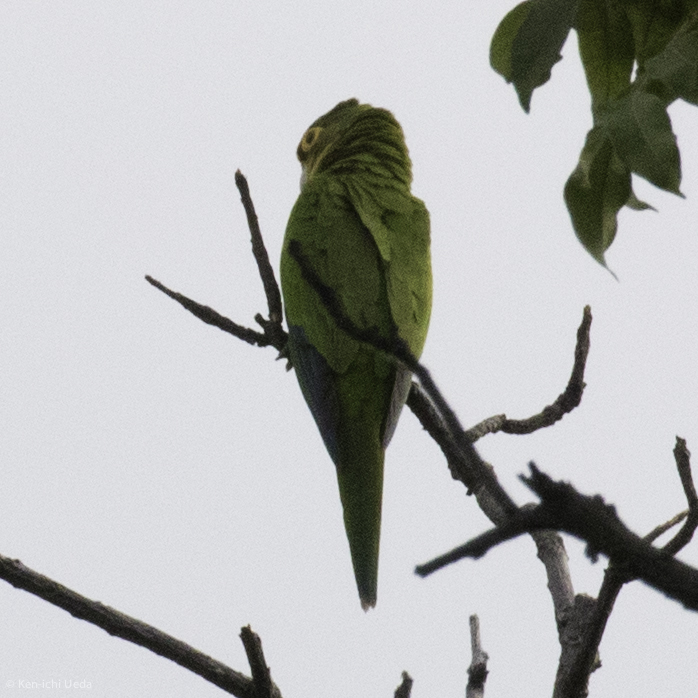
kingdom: Animalia
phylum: Chordata
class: Aves
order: Psittaciformes
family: Psittacidae
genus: Aratinga
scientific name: Aratinga canicularis
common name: Orange-fronted parakeet
